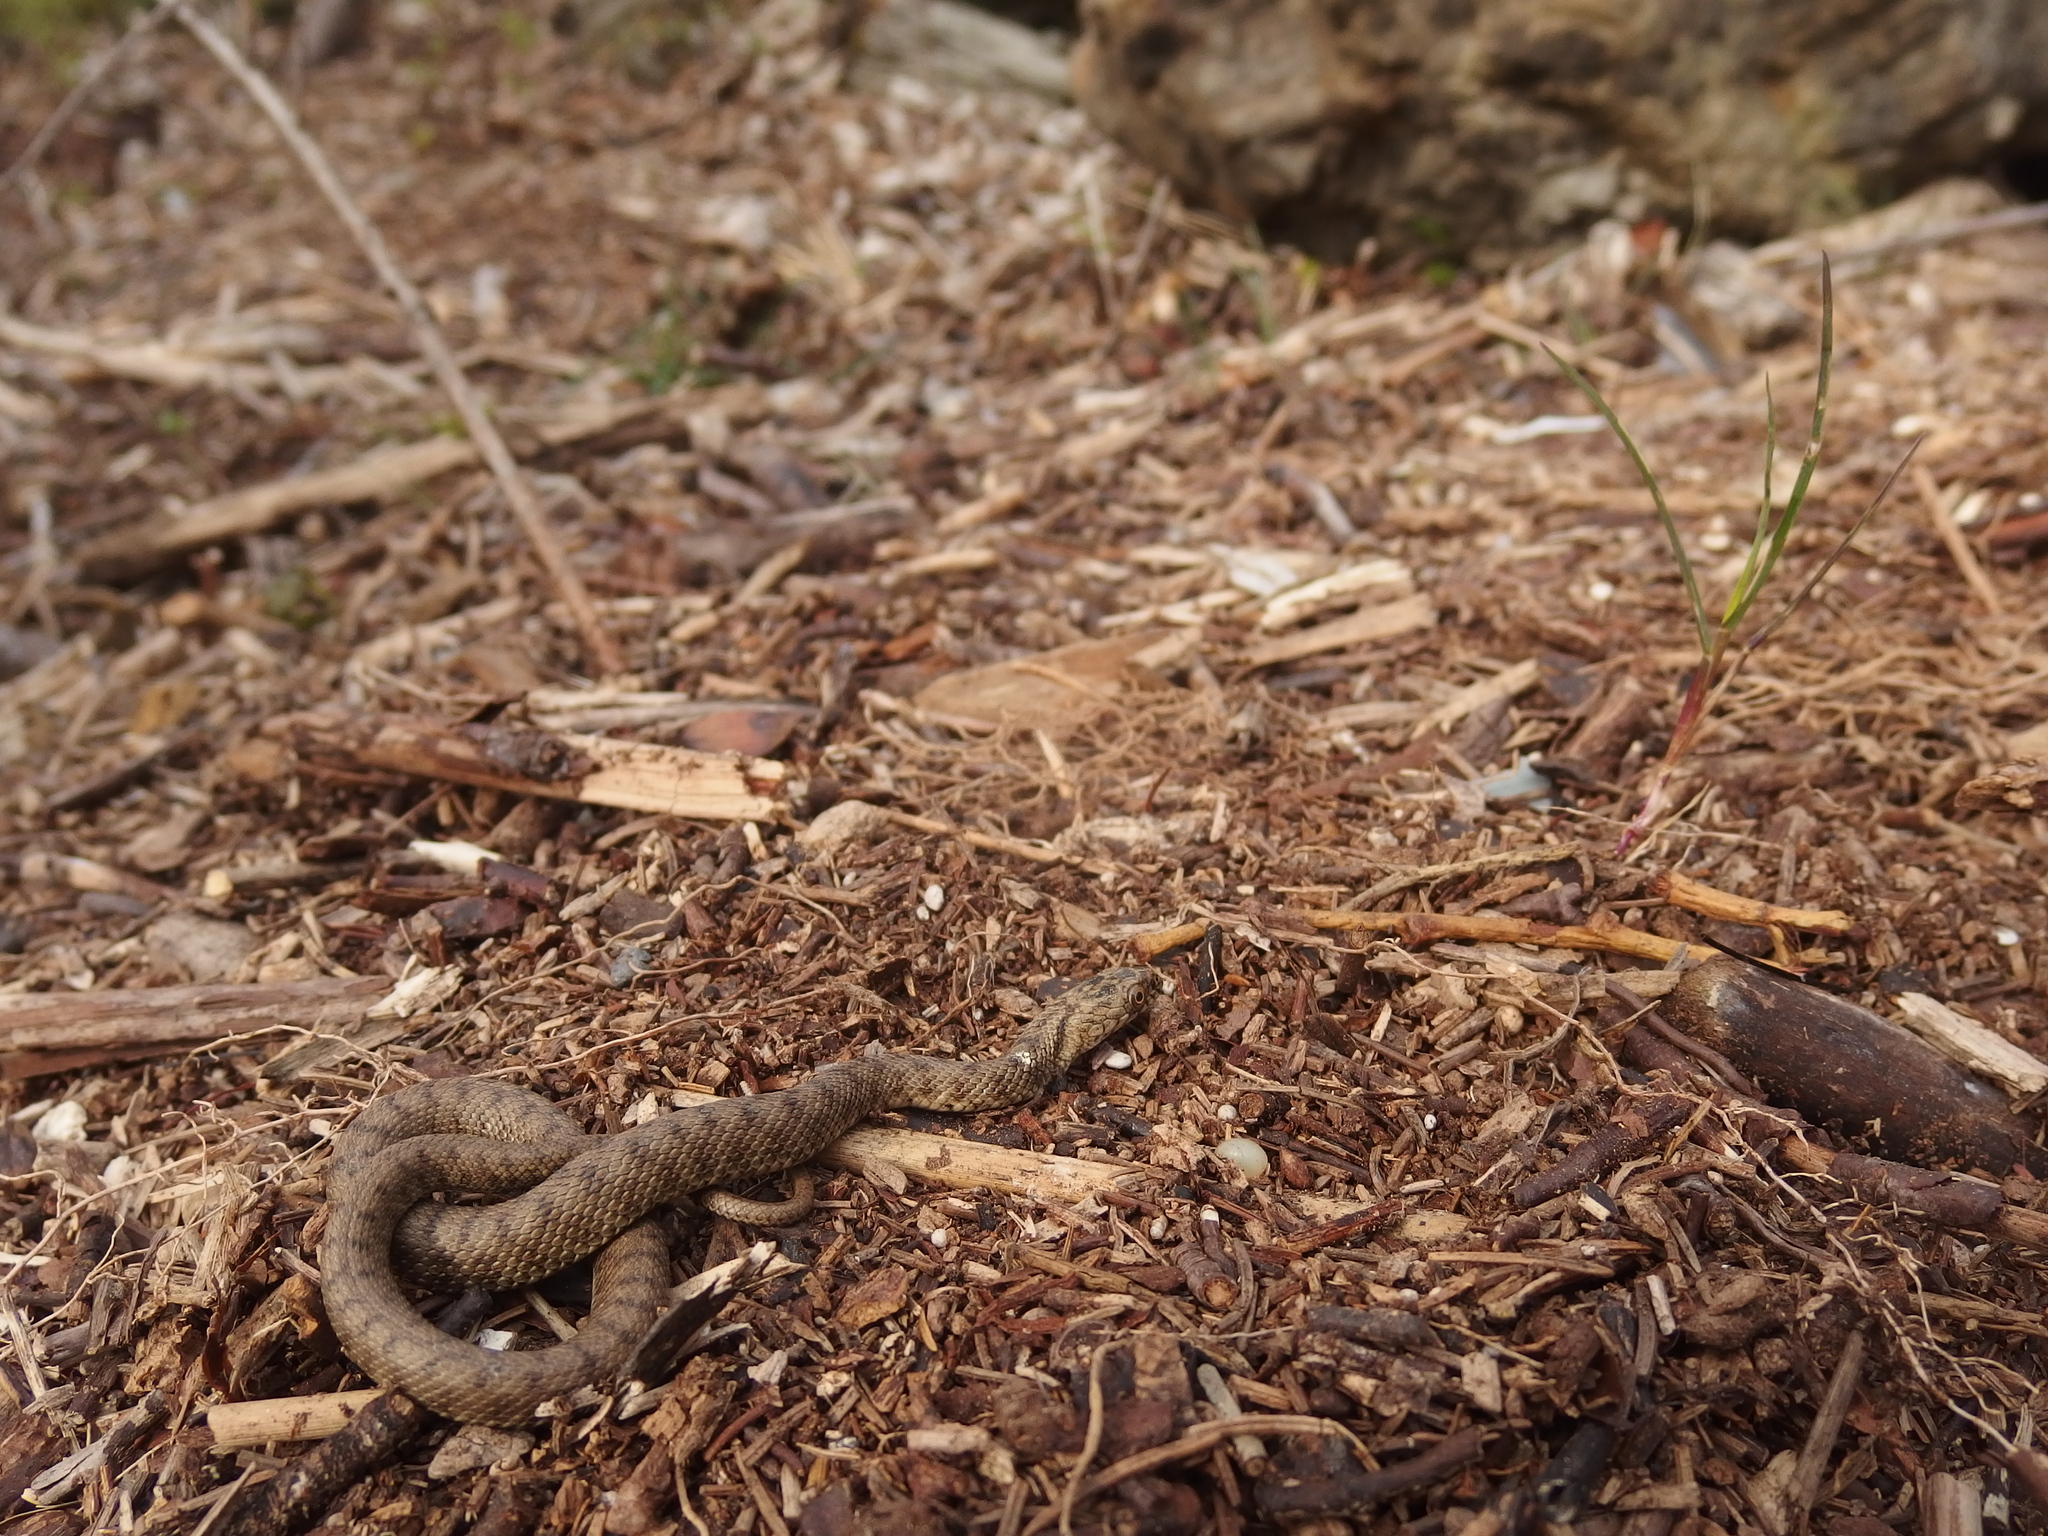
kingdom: Animalia
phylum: Chordata
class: Squamata
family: Colubridae
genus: Natrix
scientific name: Natrix tessellata
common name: Dice snake
